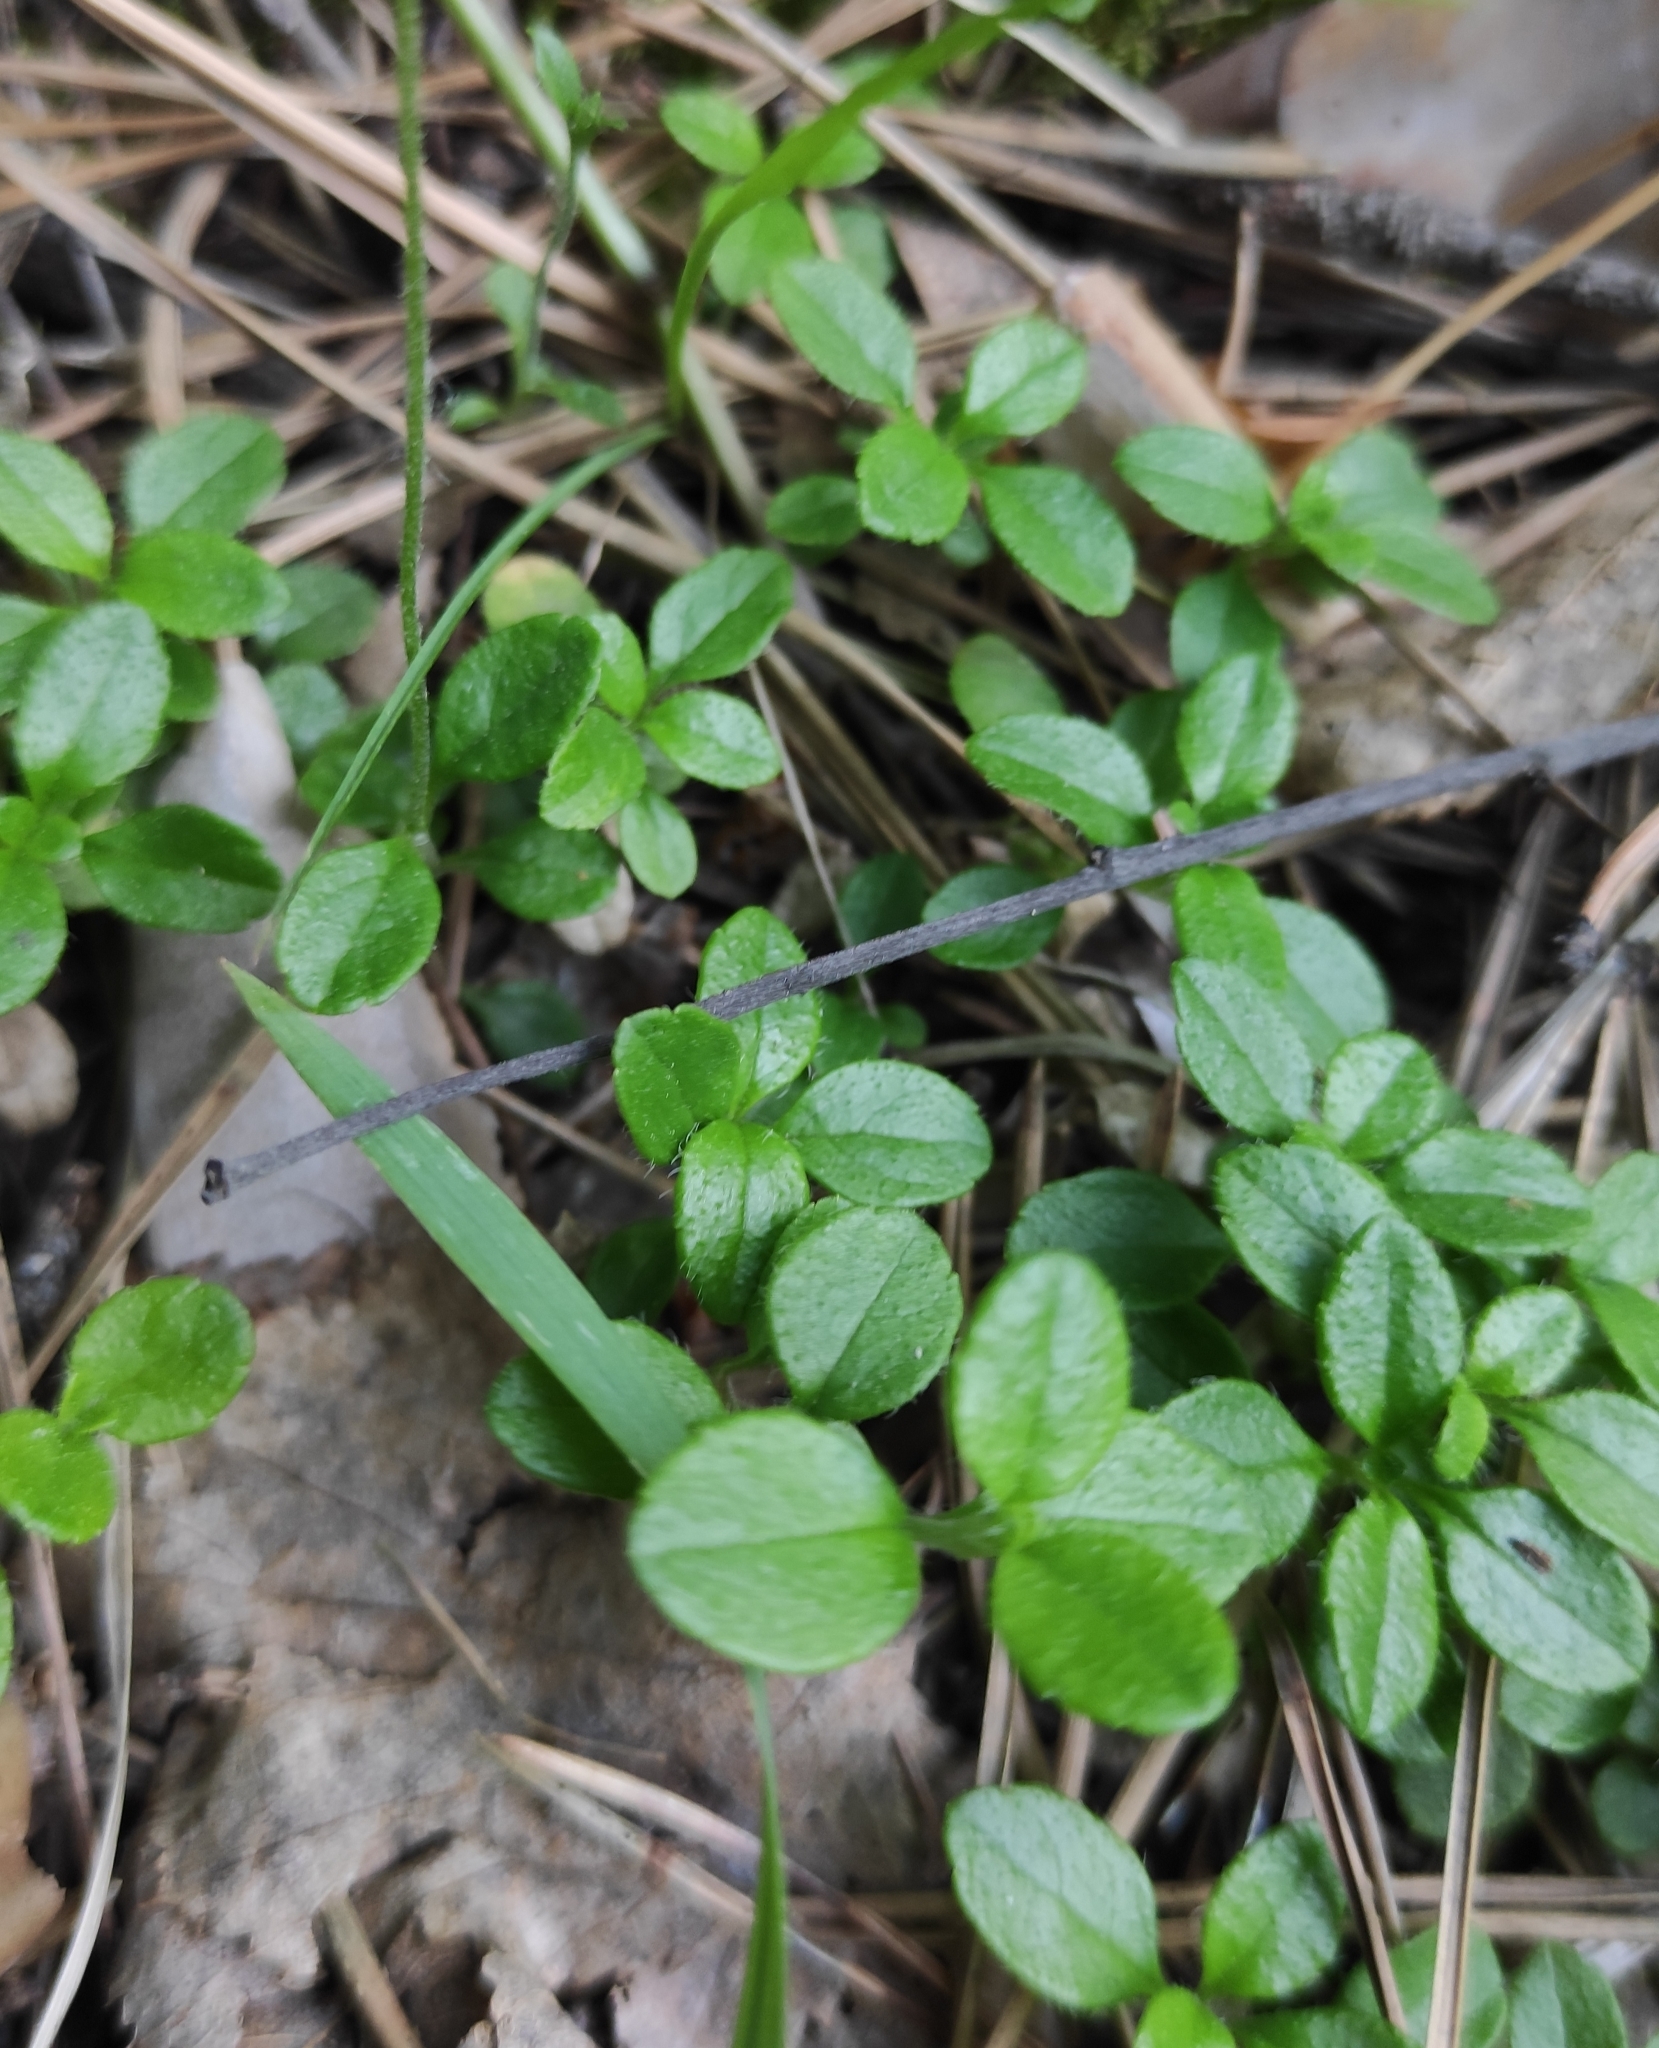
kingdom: Plantae
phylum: Tracheophyta
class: Magnoliopsida
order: Dipsacales
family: Caprifoliaceae
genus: Linnaea
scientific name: Linnaea borealis
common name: Twinflower
